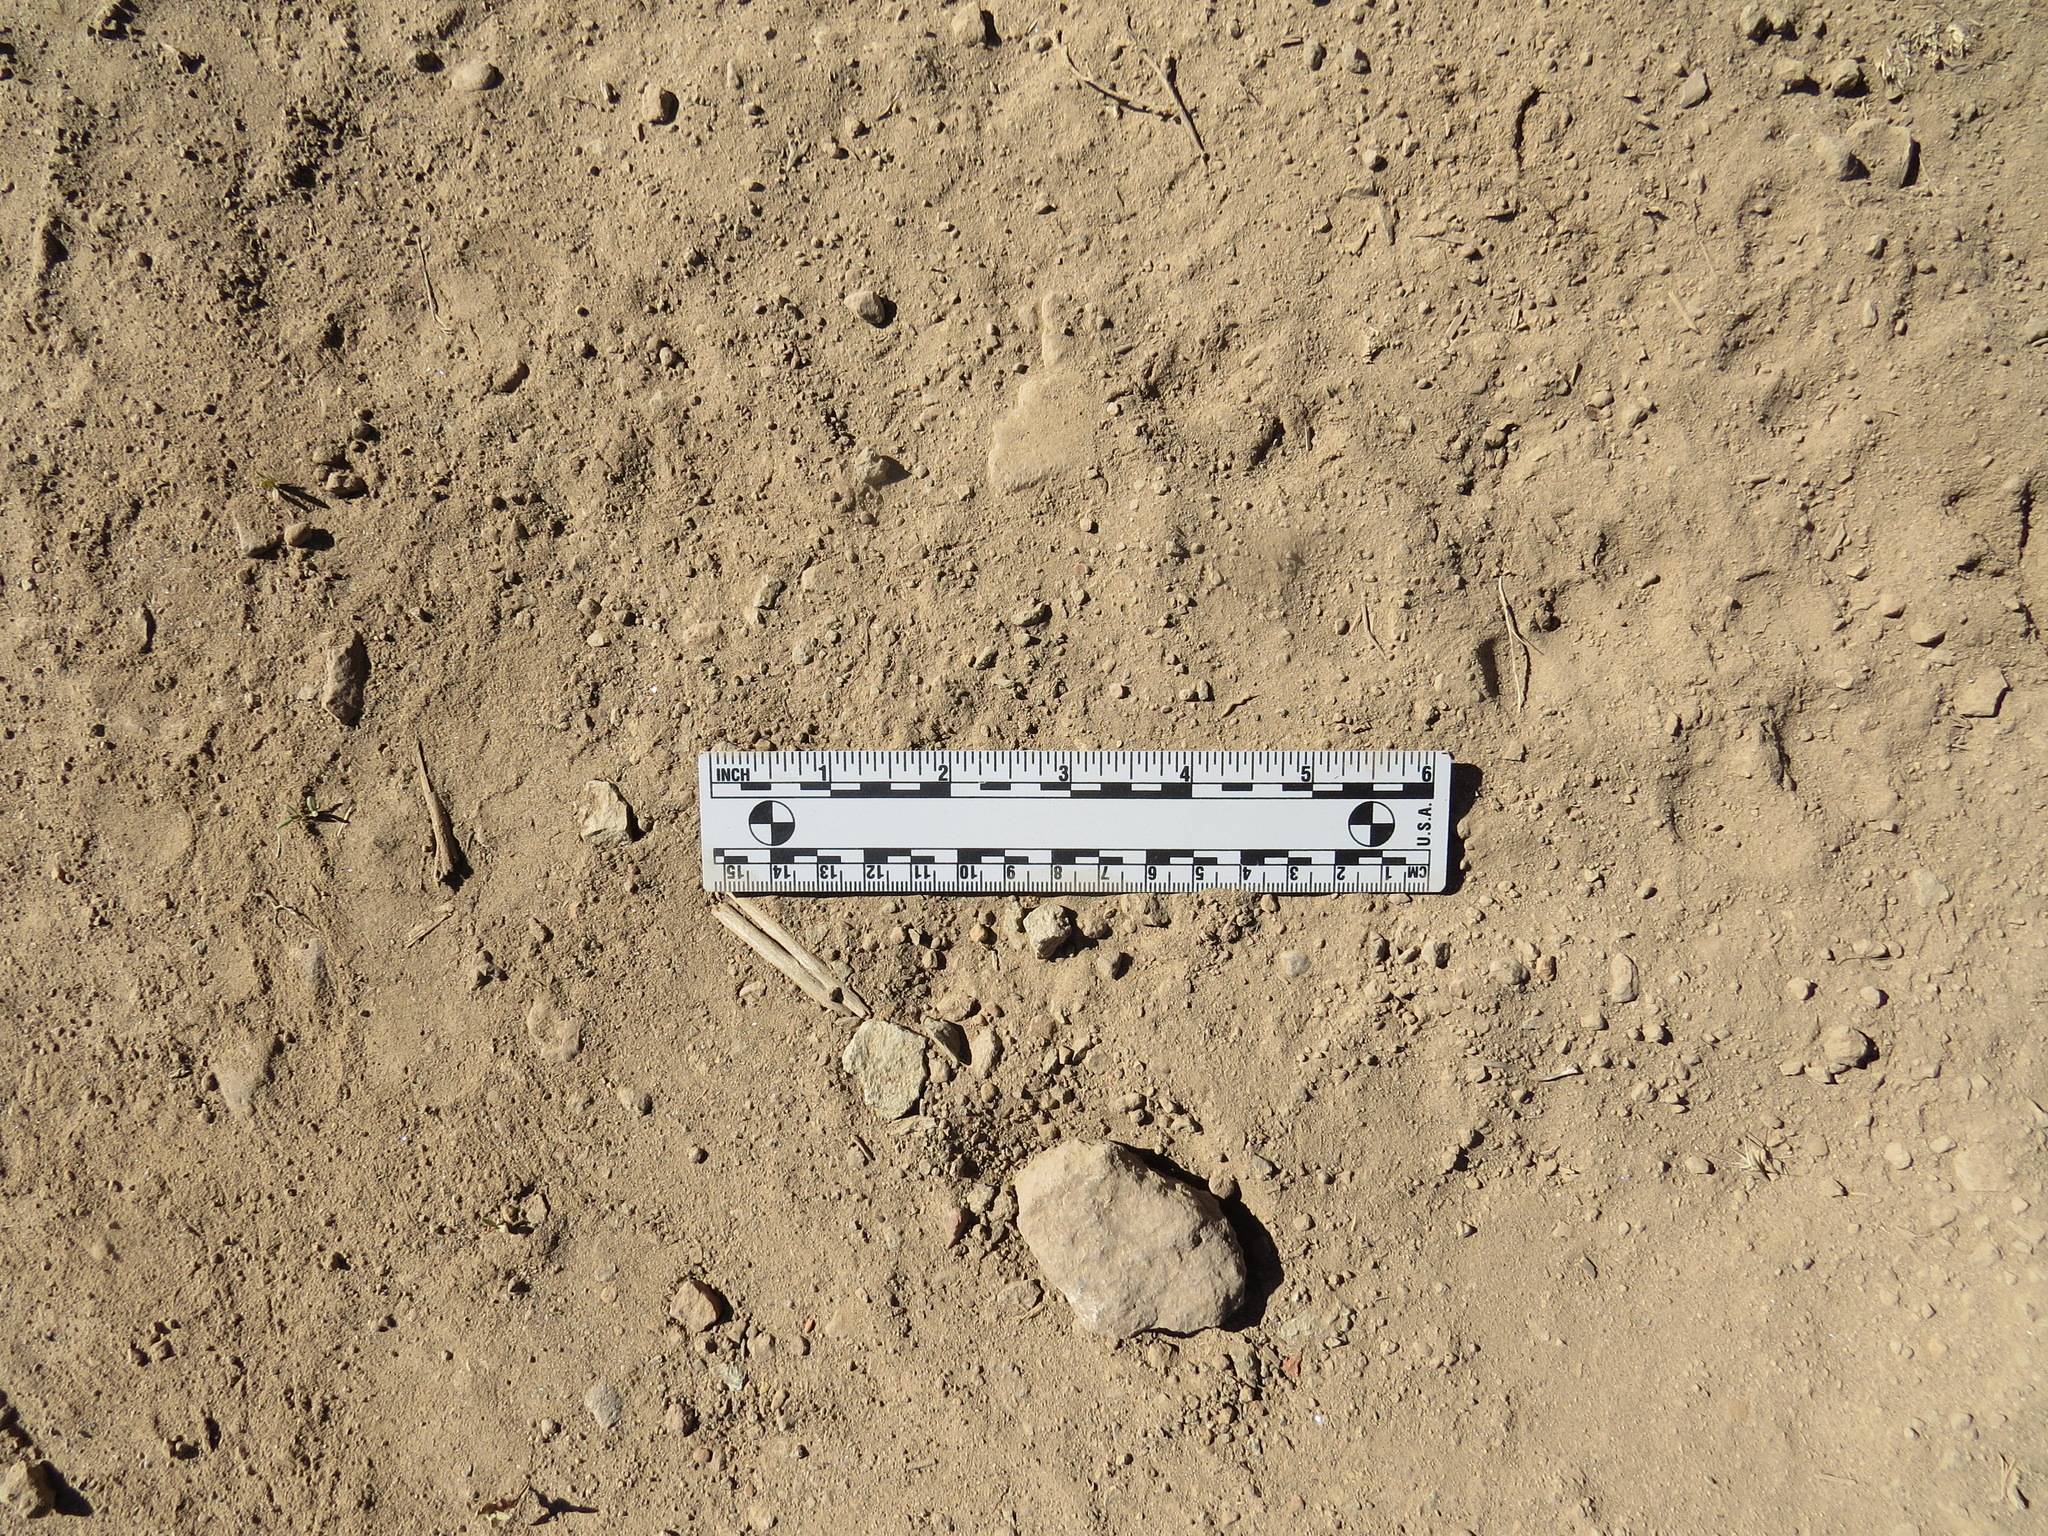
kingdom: Animalia
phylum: Chordata
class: Mammalia
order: Carnivora
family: Felidae
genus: Puma
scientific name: Puma concolor
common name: Puma
